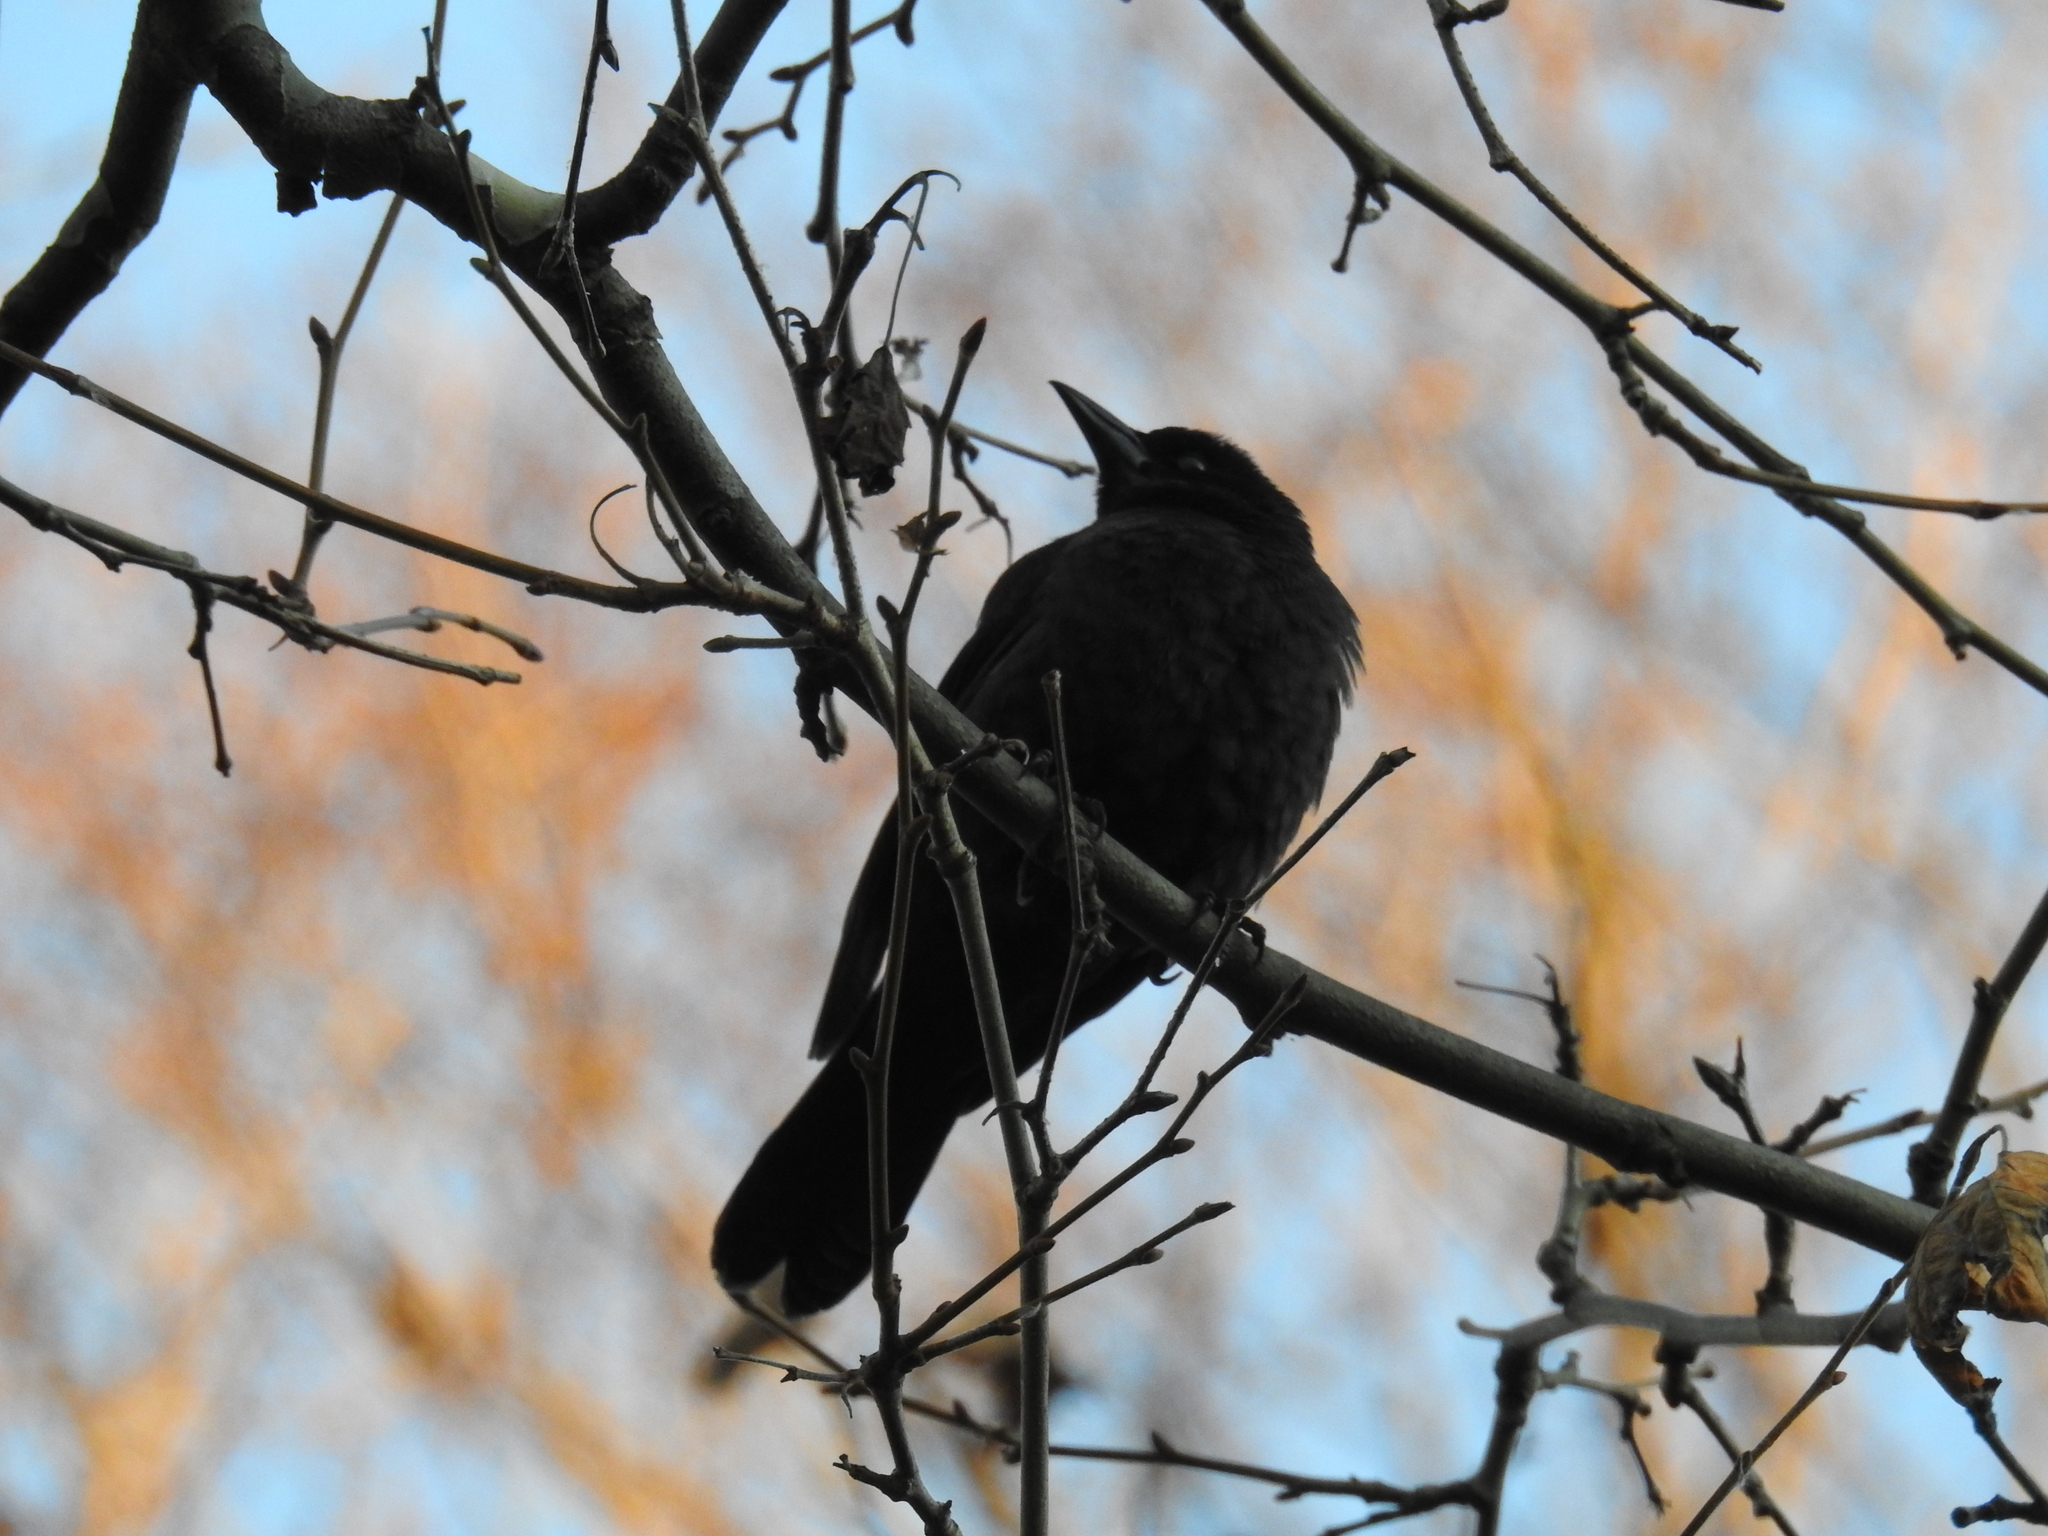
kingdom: Animalia
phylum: Chordata
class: Aves
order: Passeriformes
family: Icteridae
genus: Quiscalus
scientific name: Quiscalus quiscula
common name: Common grackle
